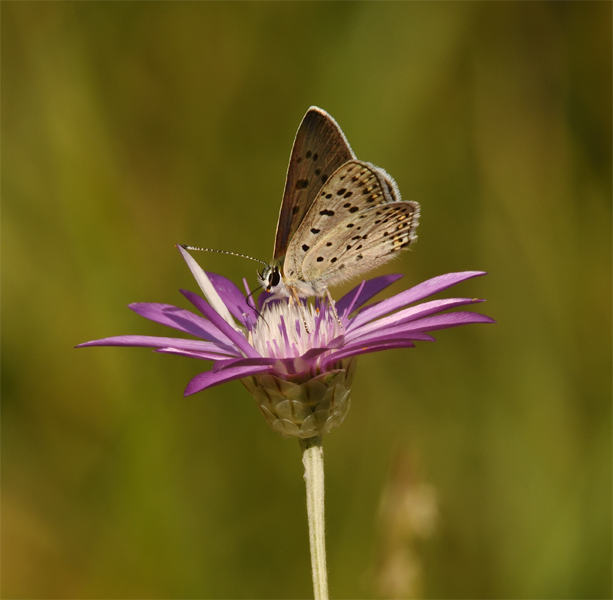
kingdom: Animalia
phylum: Arthropoda
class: Insecta
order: Lepidoptera
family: Lycaenidae
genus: Loweia
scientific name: Loweia tityrus
